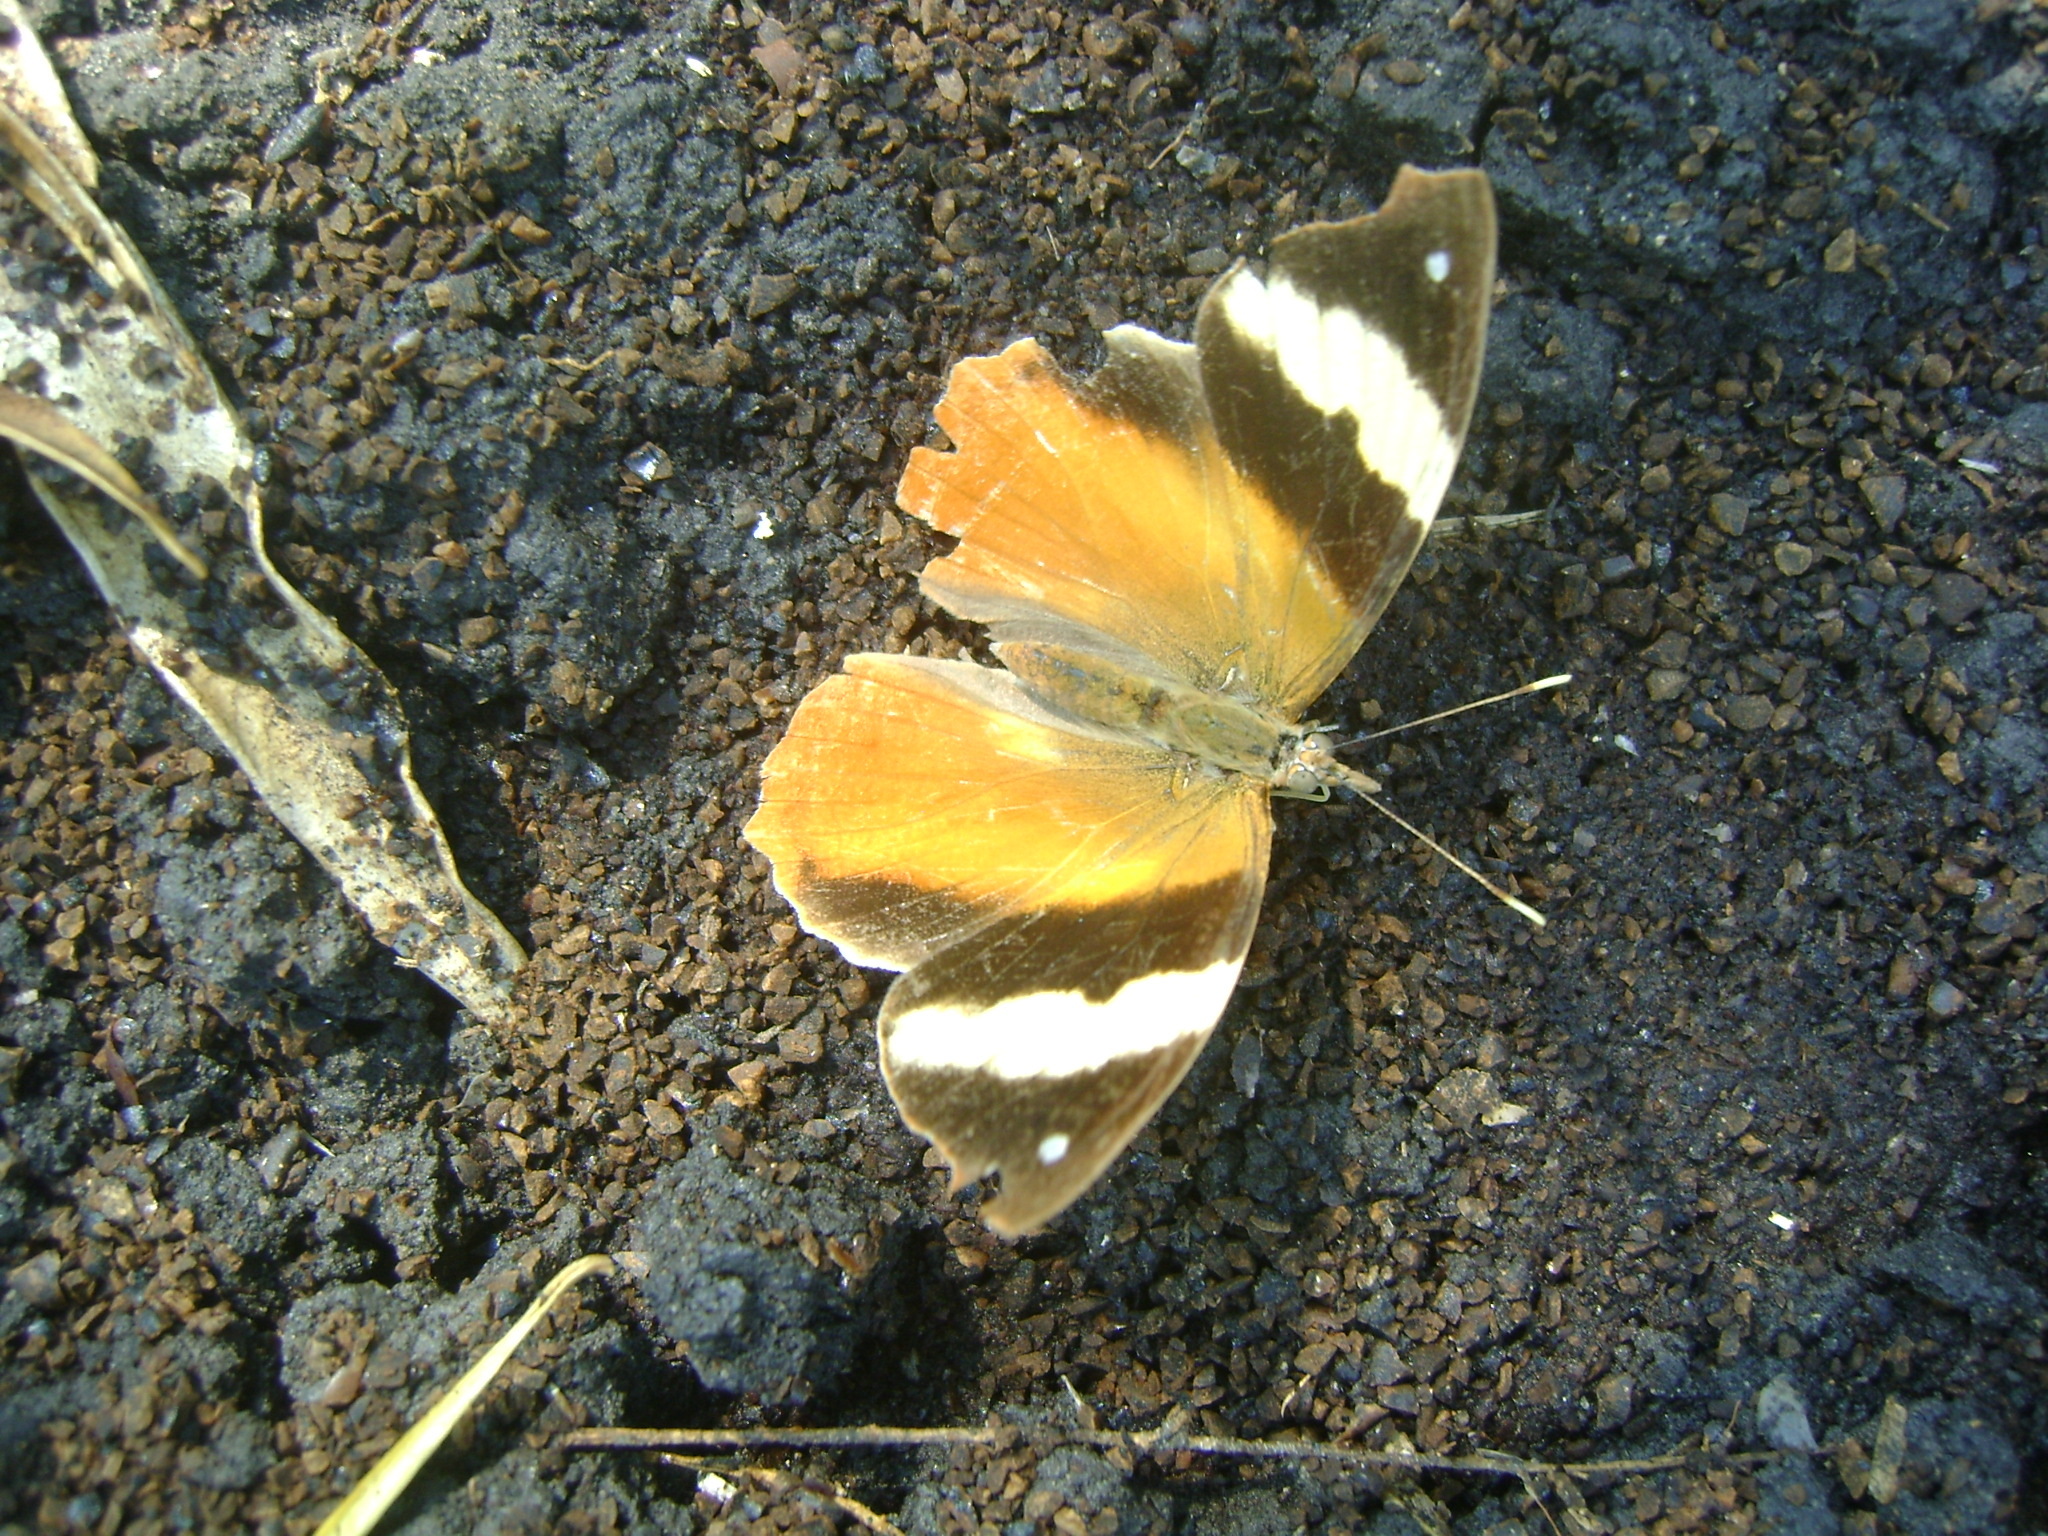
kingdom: Animalia
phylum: Arthropoda
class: Insecta
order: Lepidoptera
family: Nymphalidae
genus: Epiphile
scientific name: Epiphile adrasta
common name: Common banner
